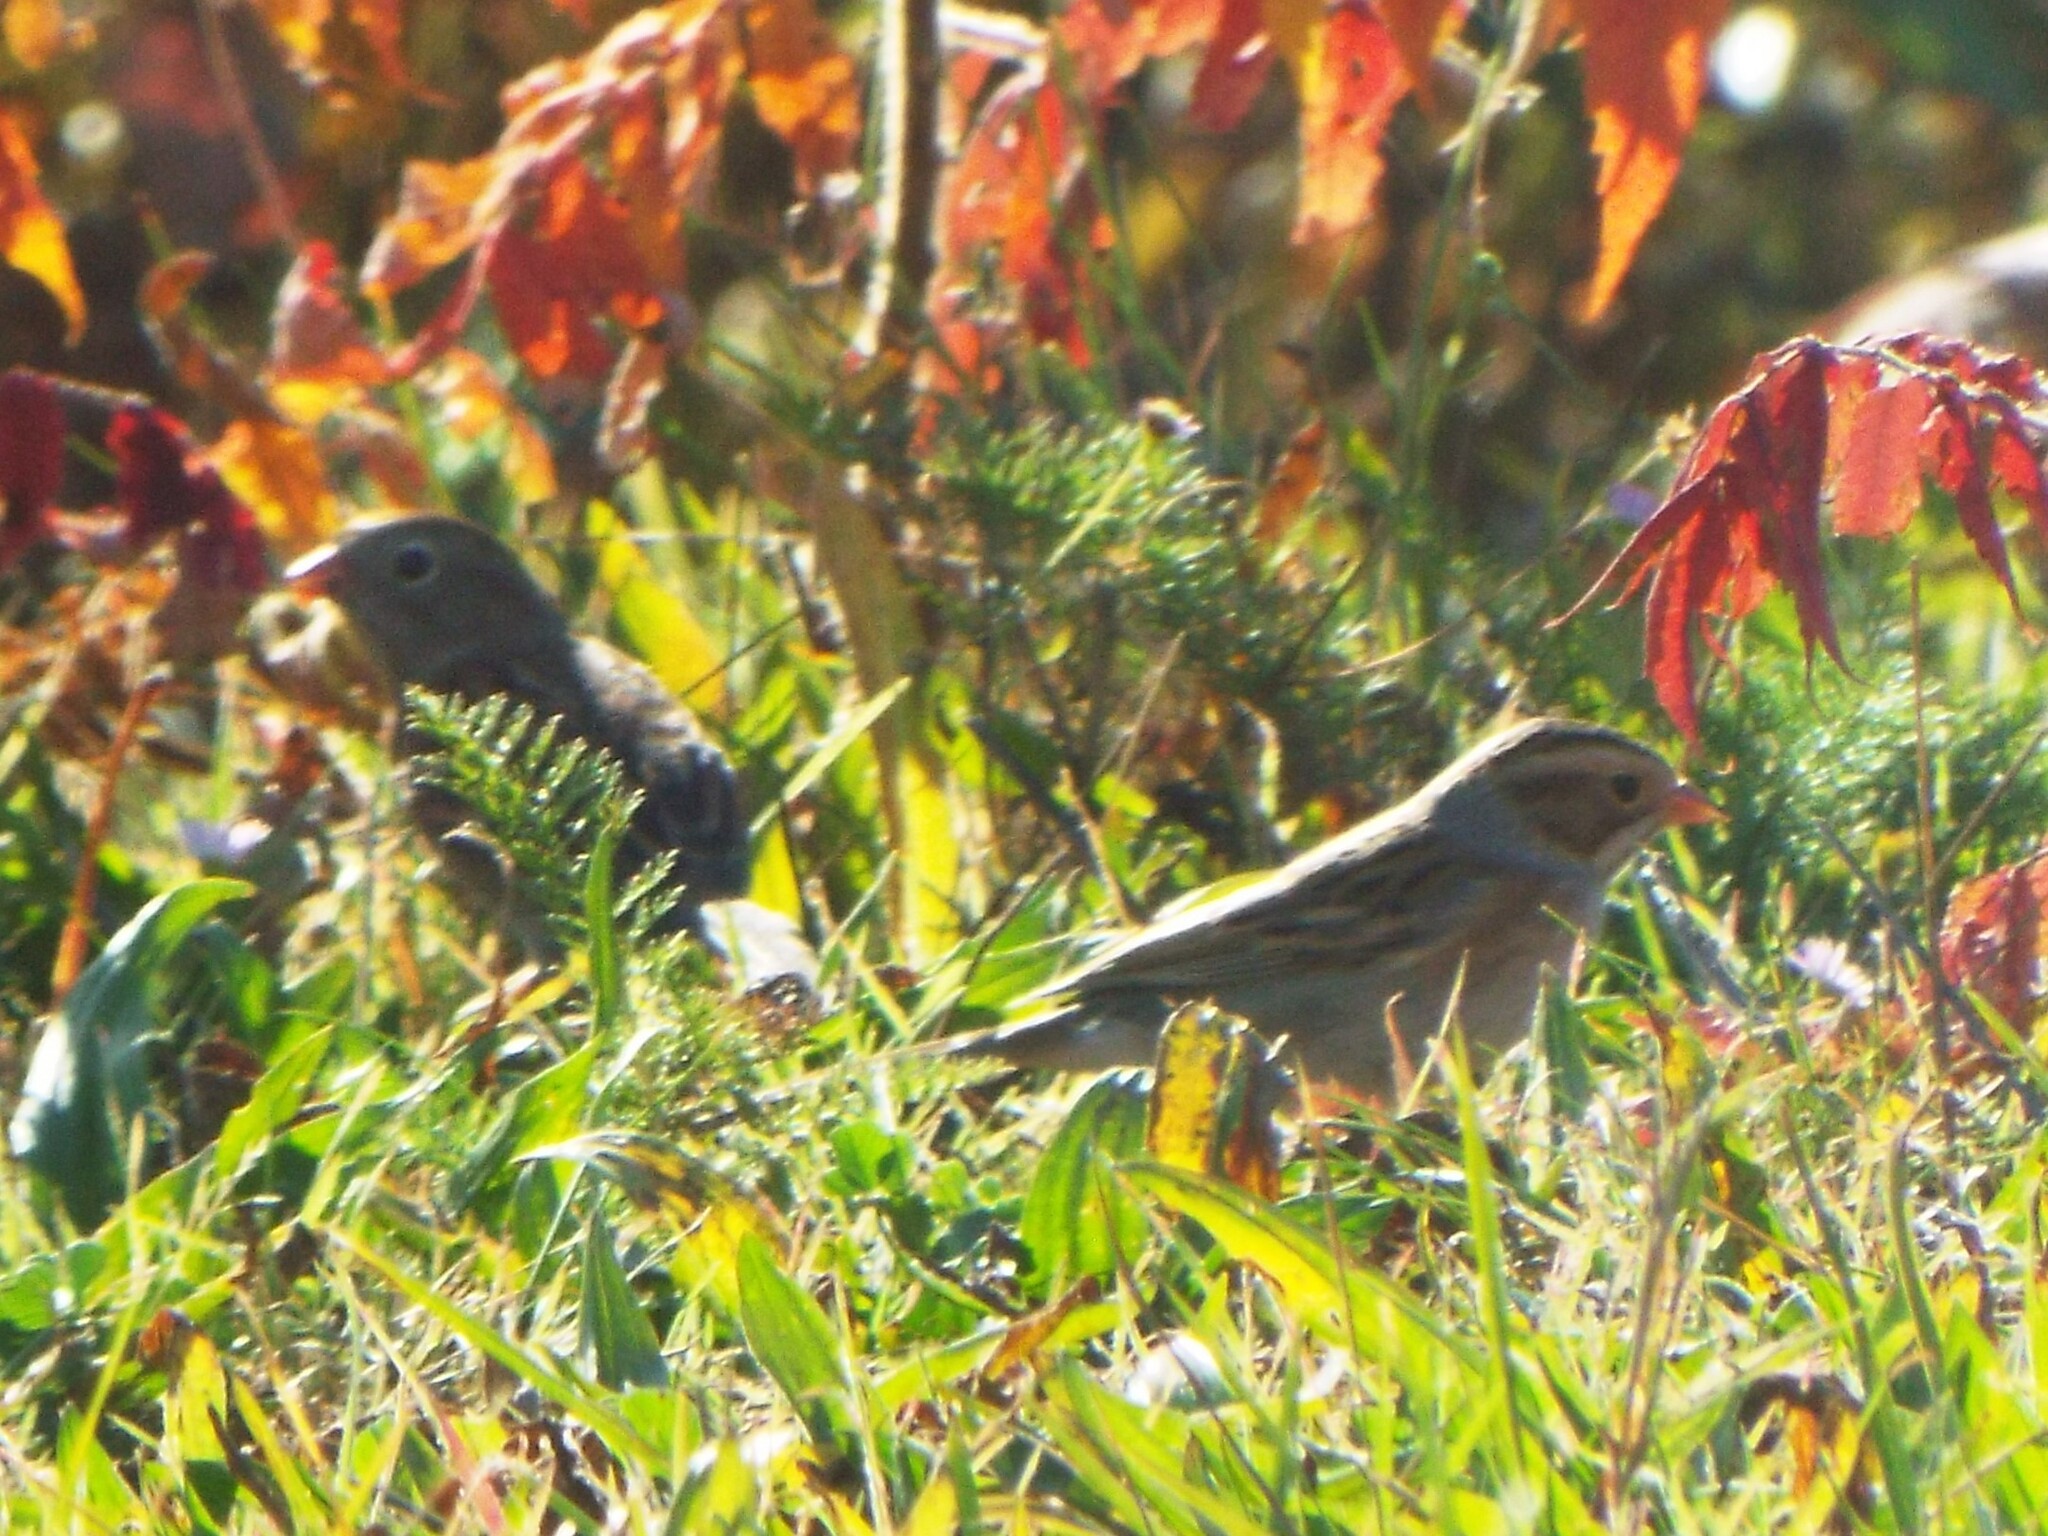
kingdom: Animalia
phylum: Chordata
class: Aves
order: Passeriformes
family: Passerellidae
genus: Spizella
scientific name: Spizella pallida
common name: Clay-colored sparrow
